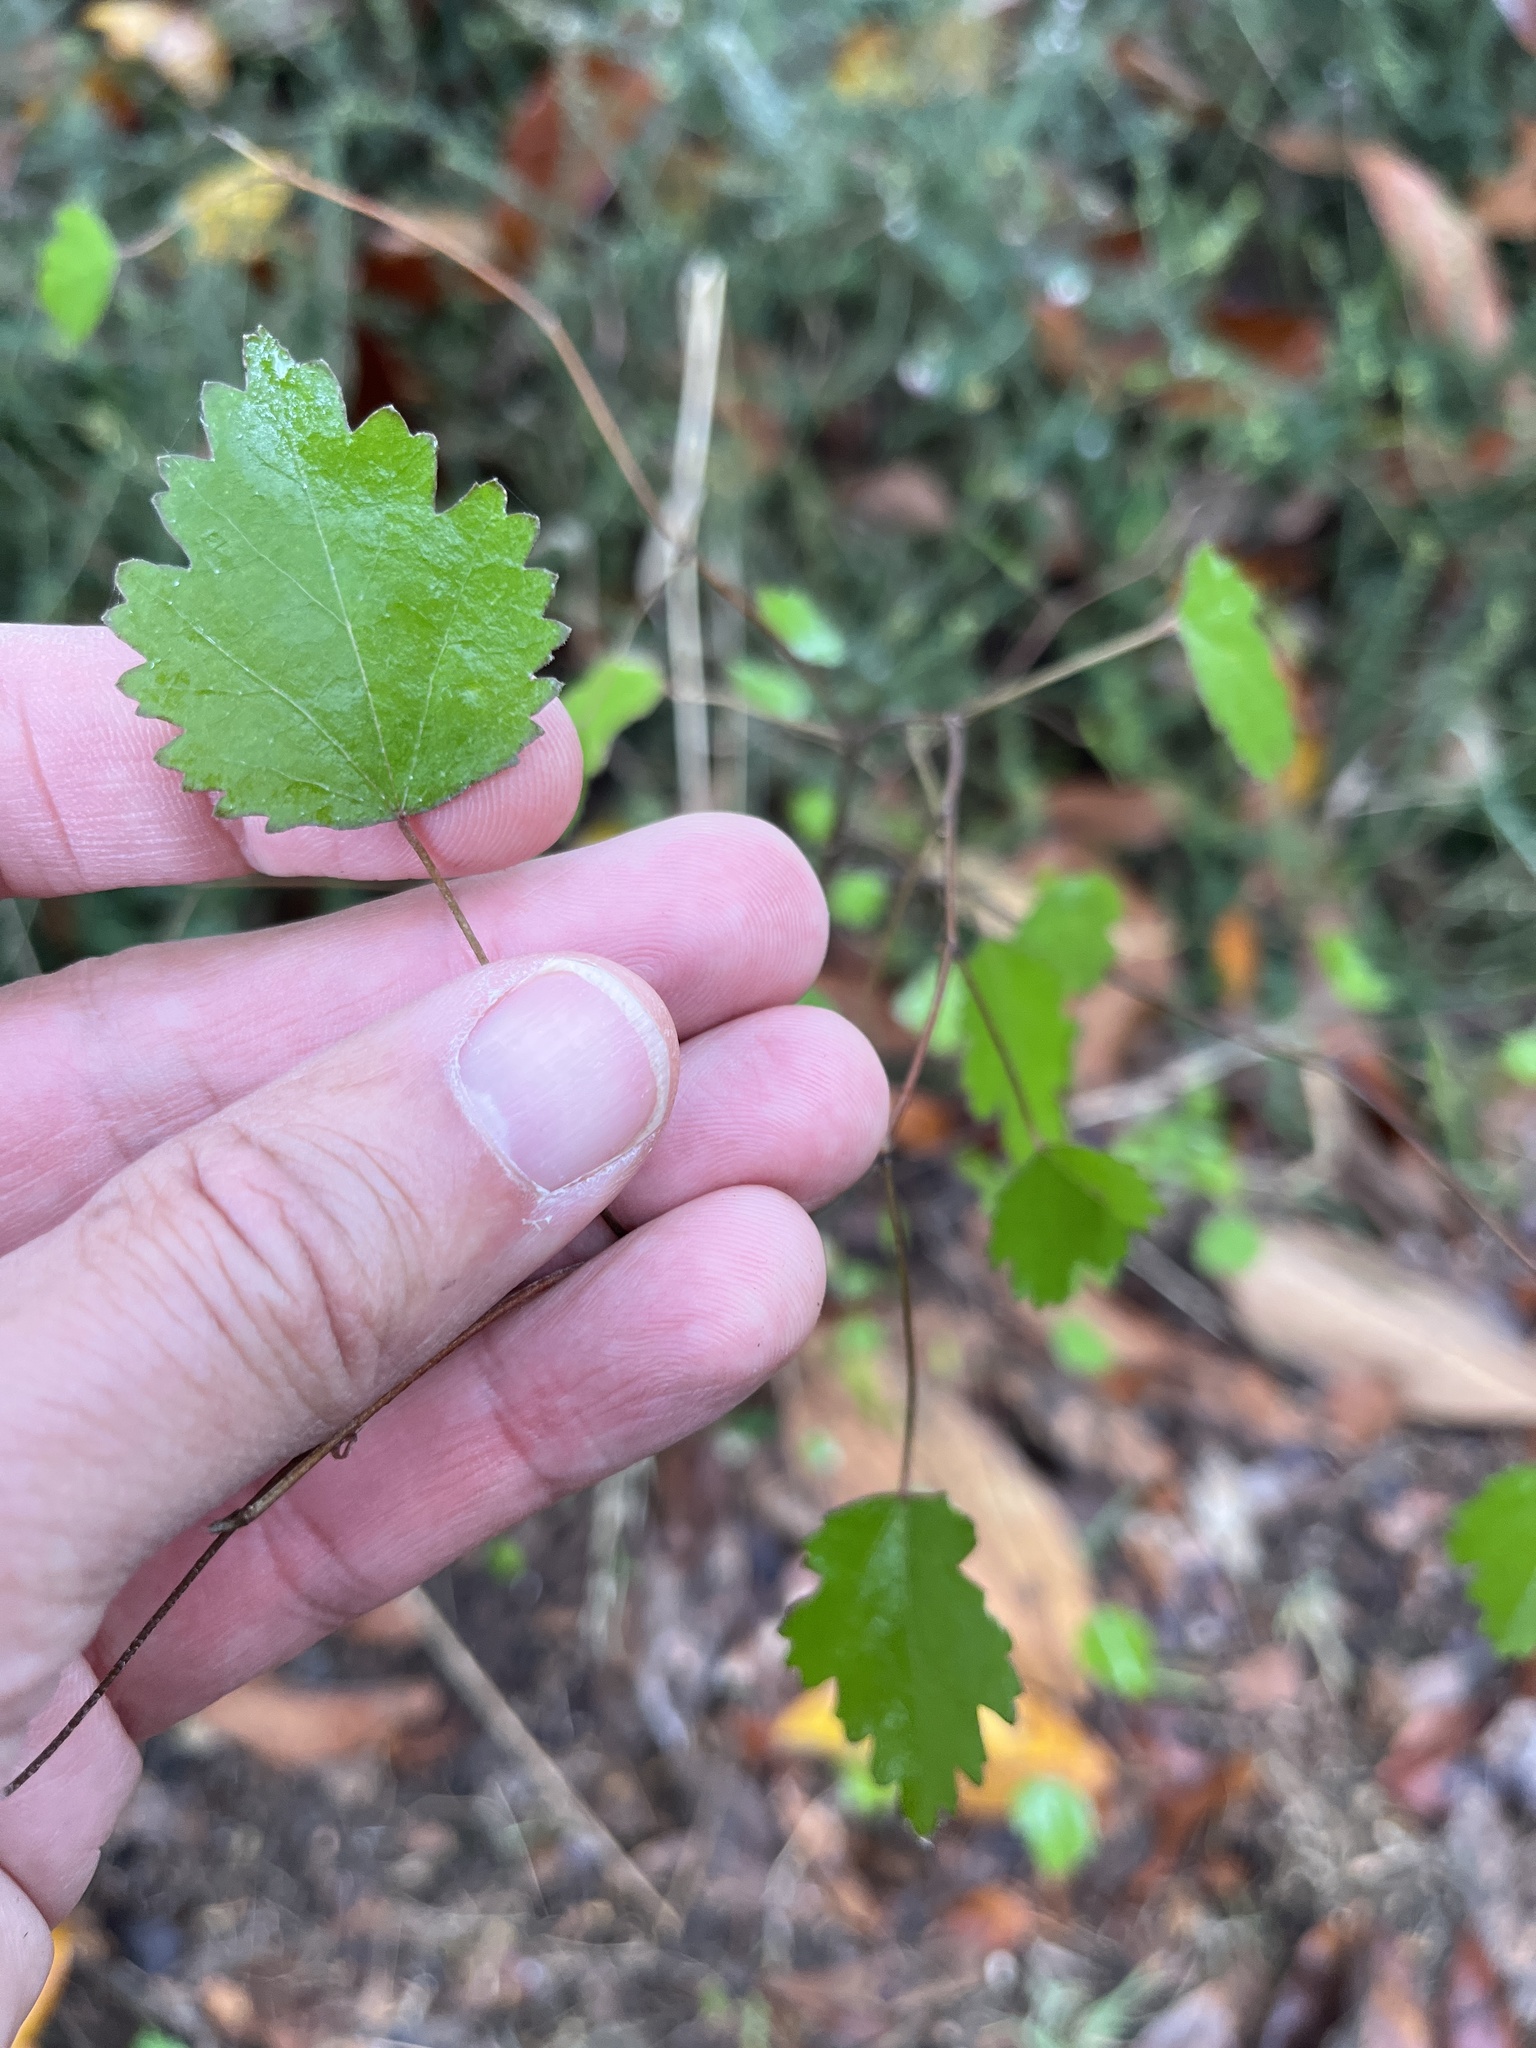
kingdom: Plantae
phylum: Tracheophyta
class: Magnoliopsida
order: Malvales
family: Malvaceae
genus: Plagianthus
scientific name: Plagianthus regius
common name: Manatu
